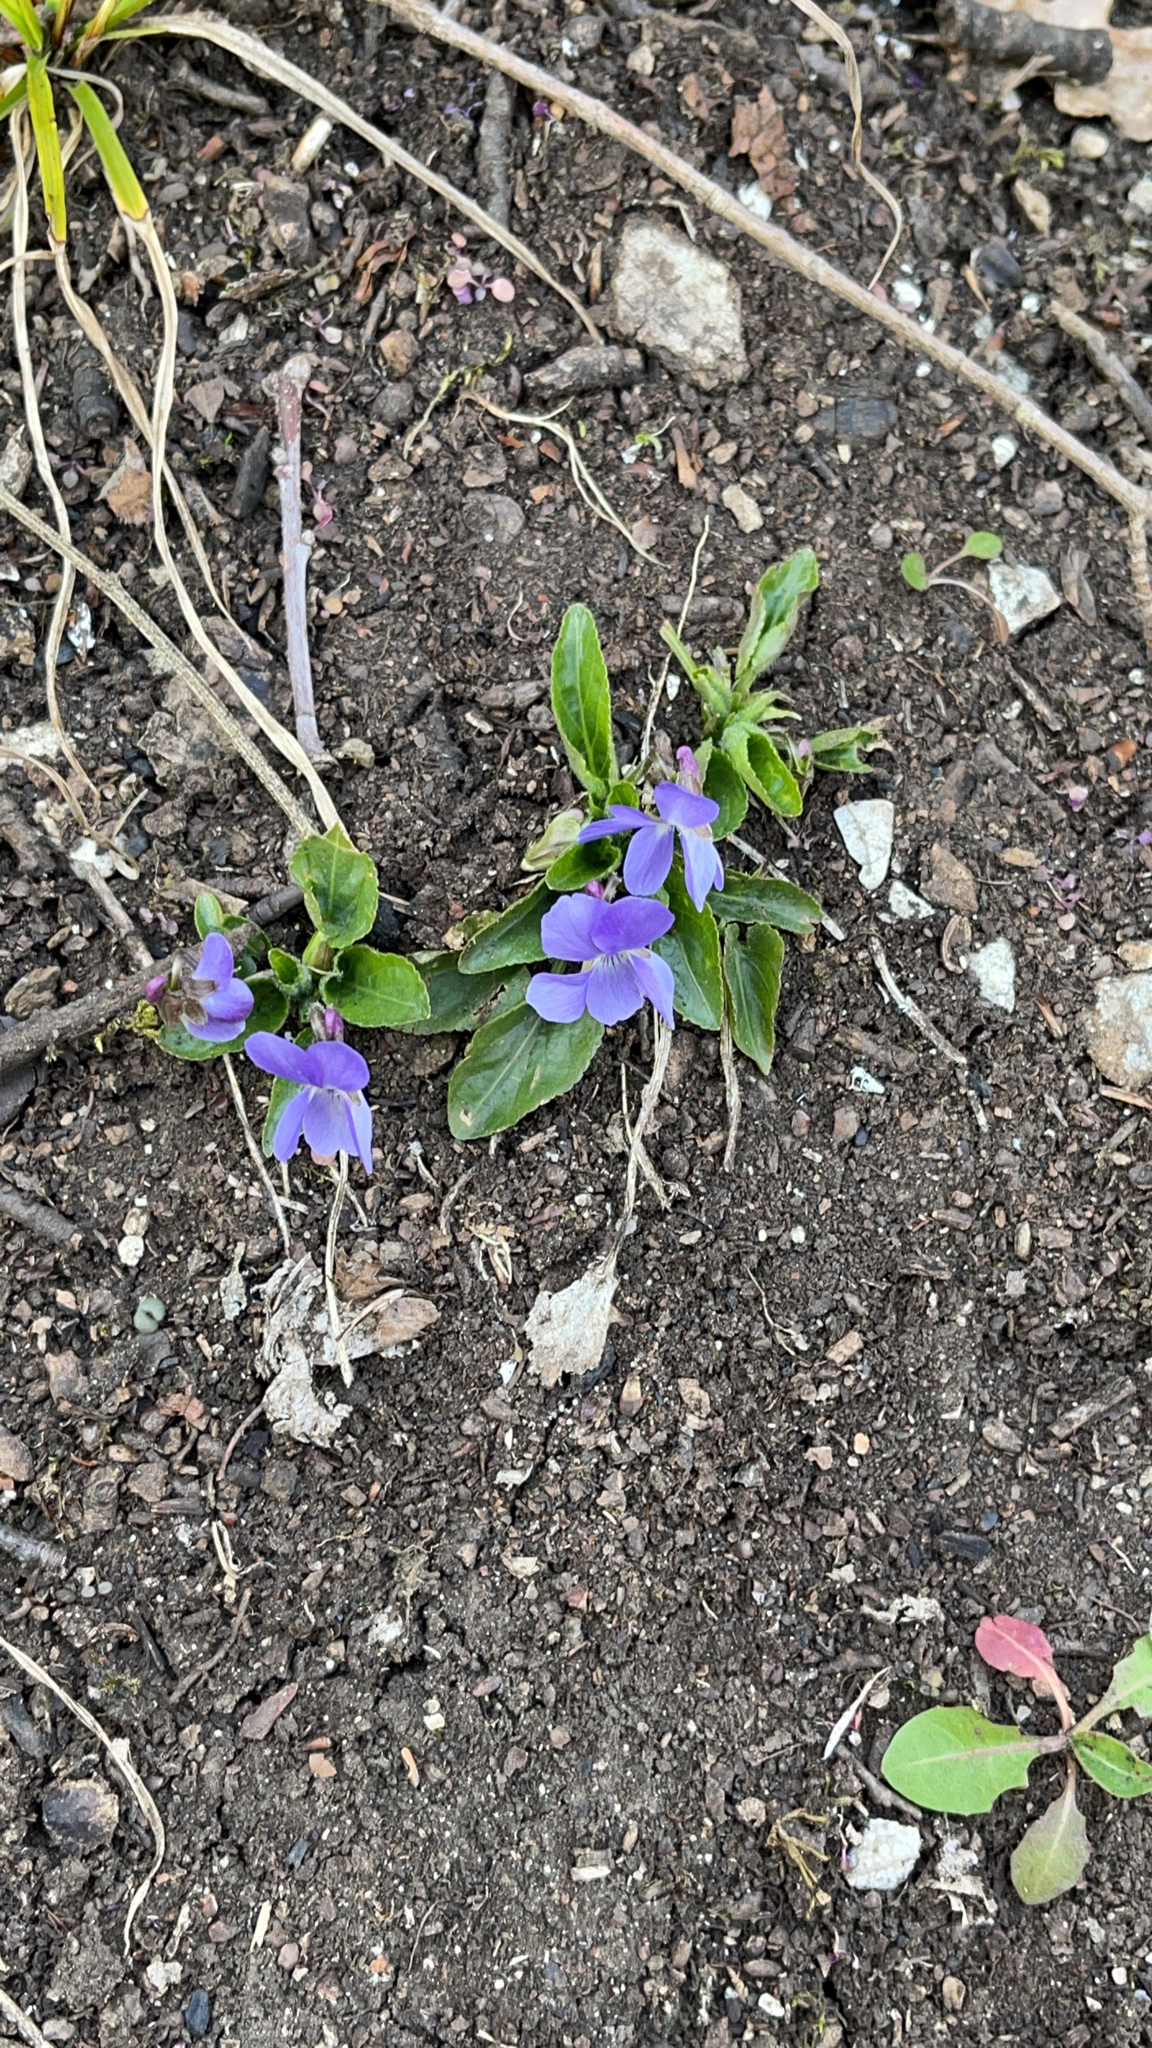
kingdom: Plantae
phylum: Tracheophyta
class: Magnoliopsida
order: Malpighiales
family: Violaceae
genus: Viola
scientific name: Viola reichenbachiana
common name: Early dog-violet
